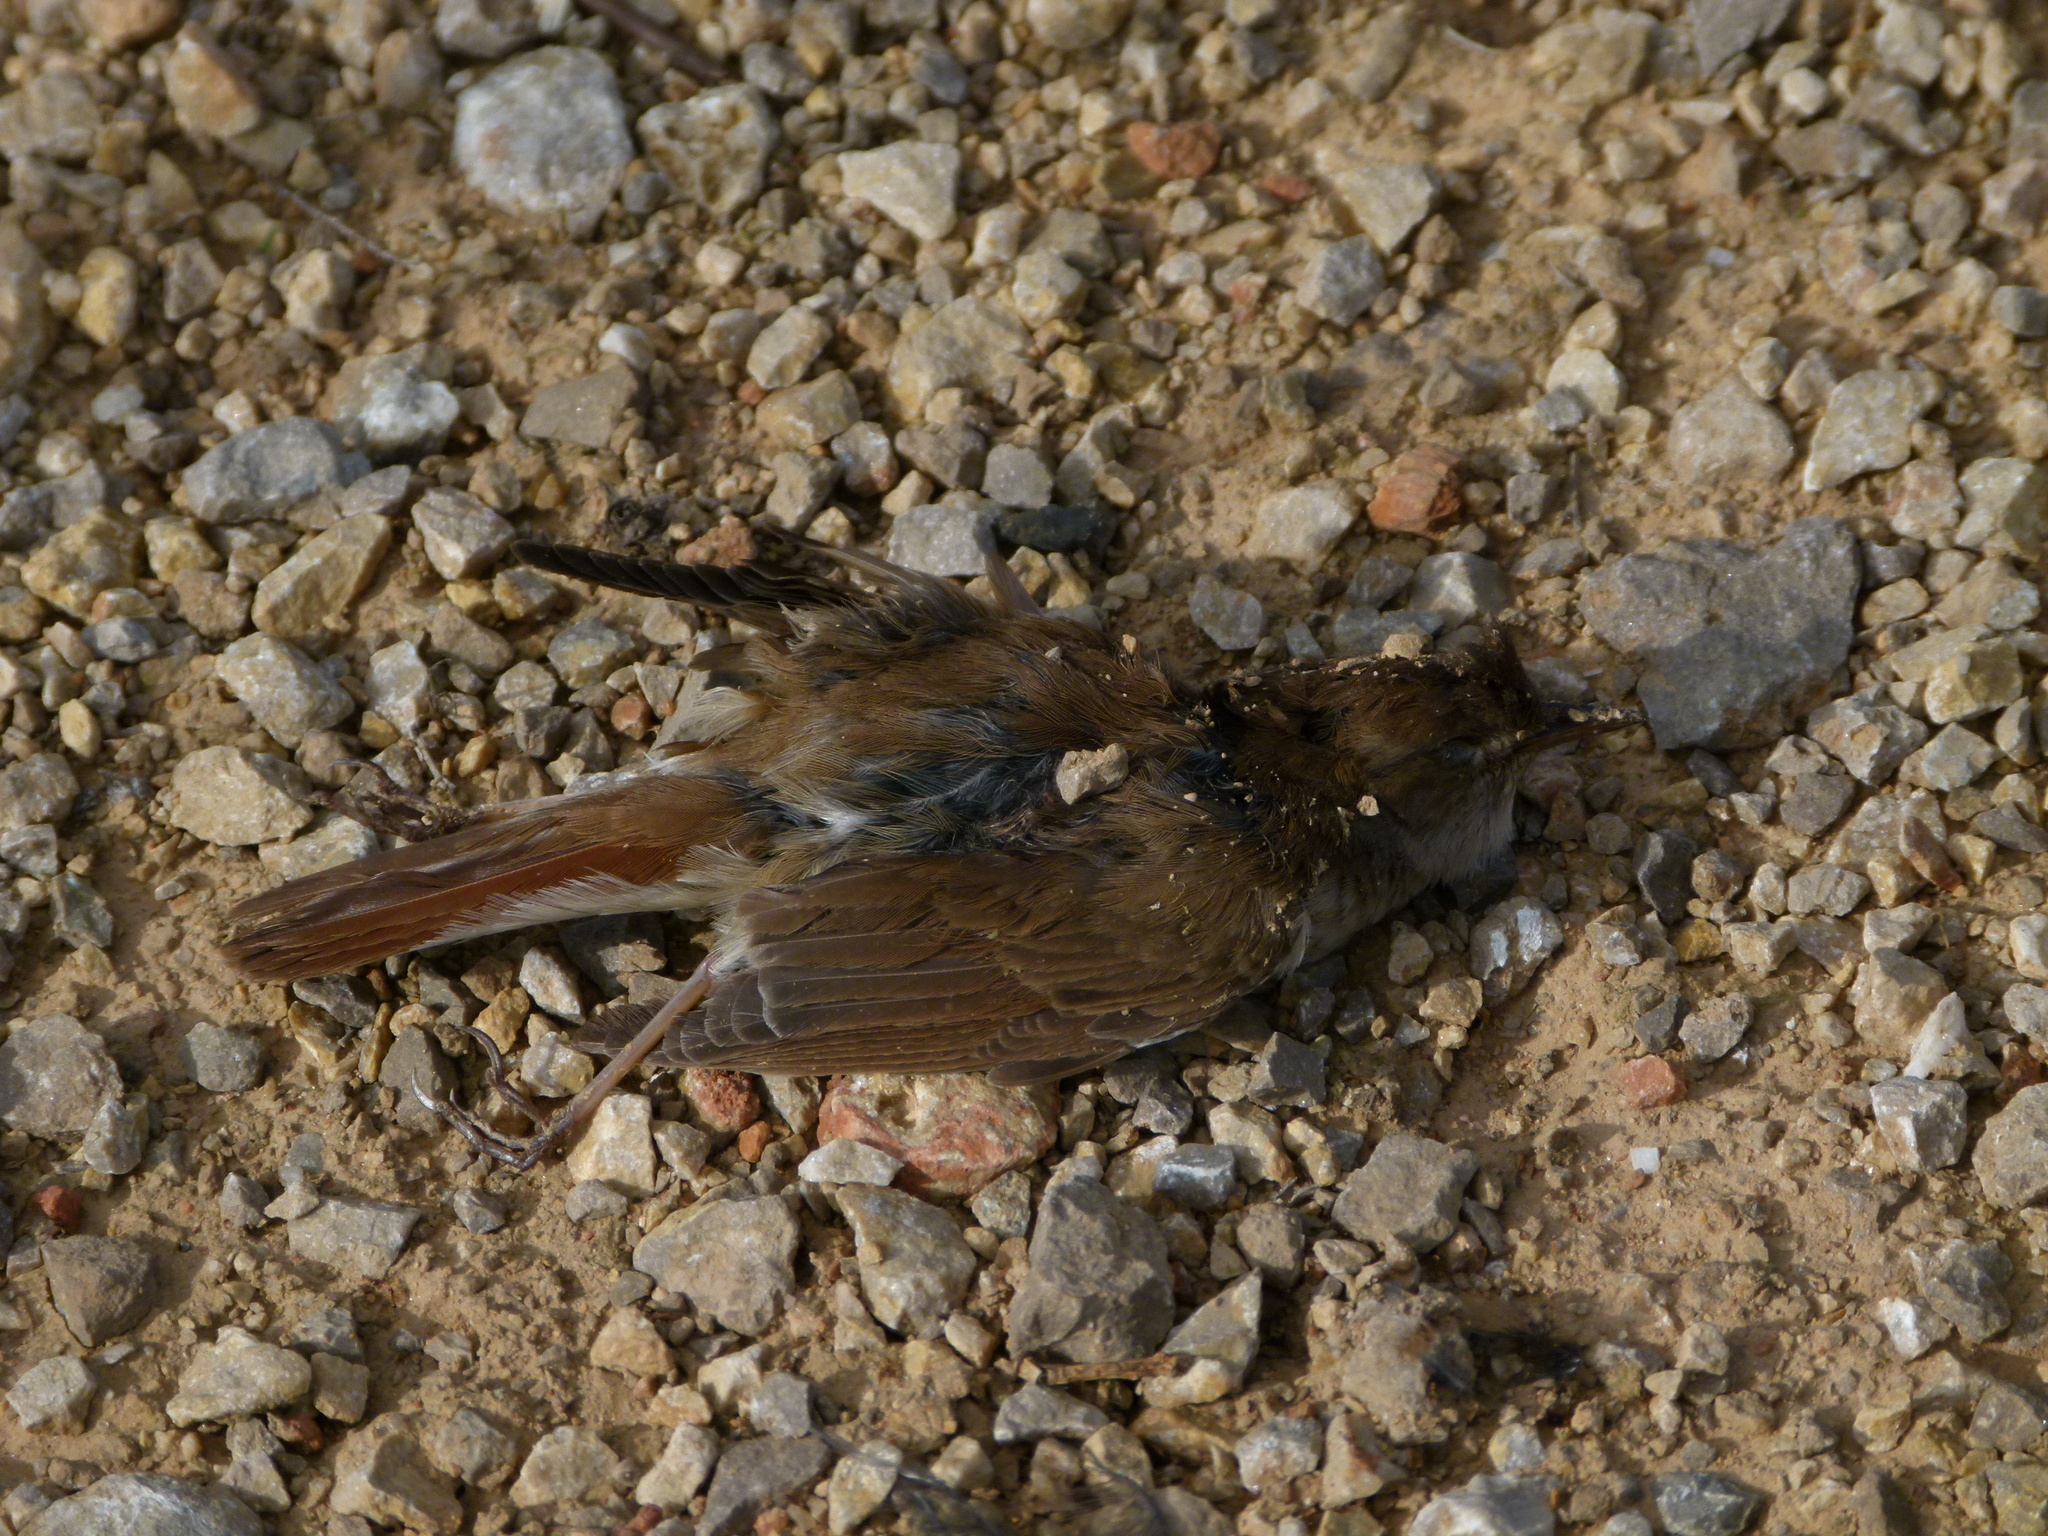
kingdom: Animalia
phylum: Chordata
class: Aves
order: Passeriformes
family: Muscicapidae
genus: Luscinia
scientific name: Luscinia megarhynchos
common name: Common nightingale
